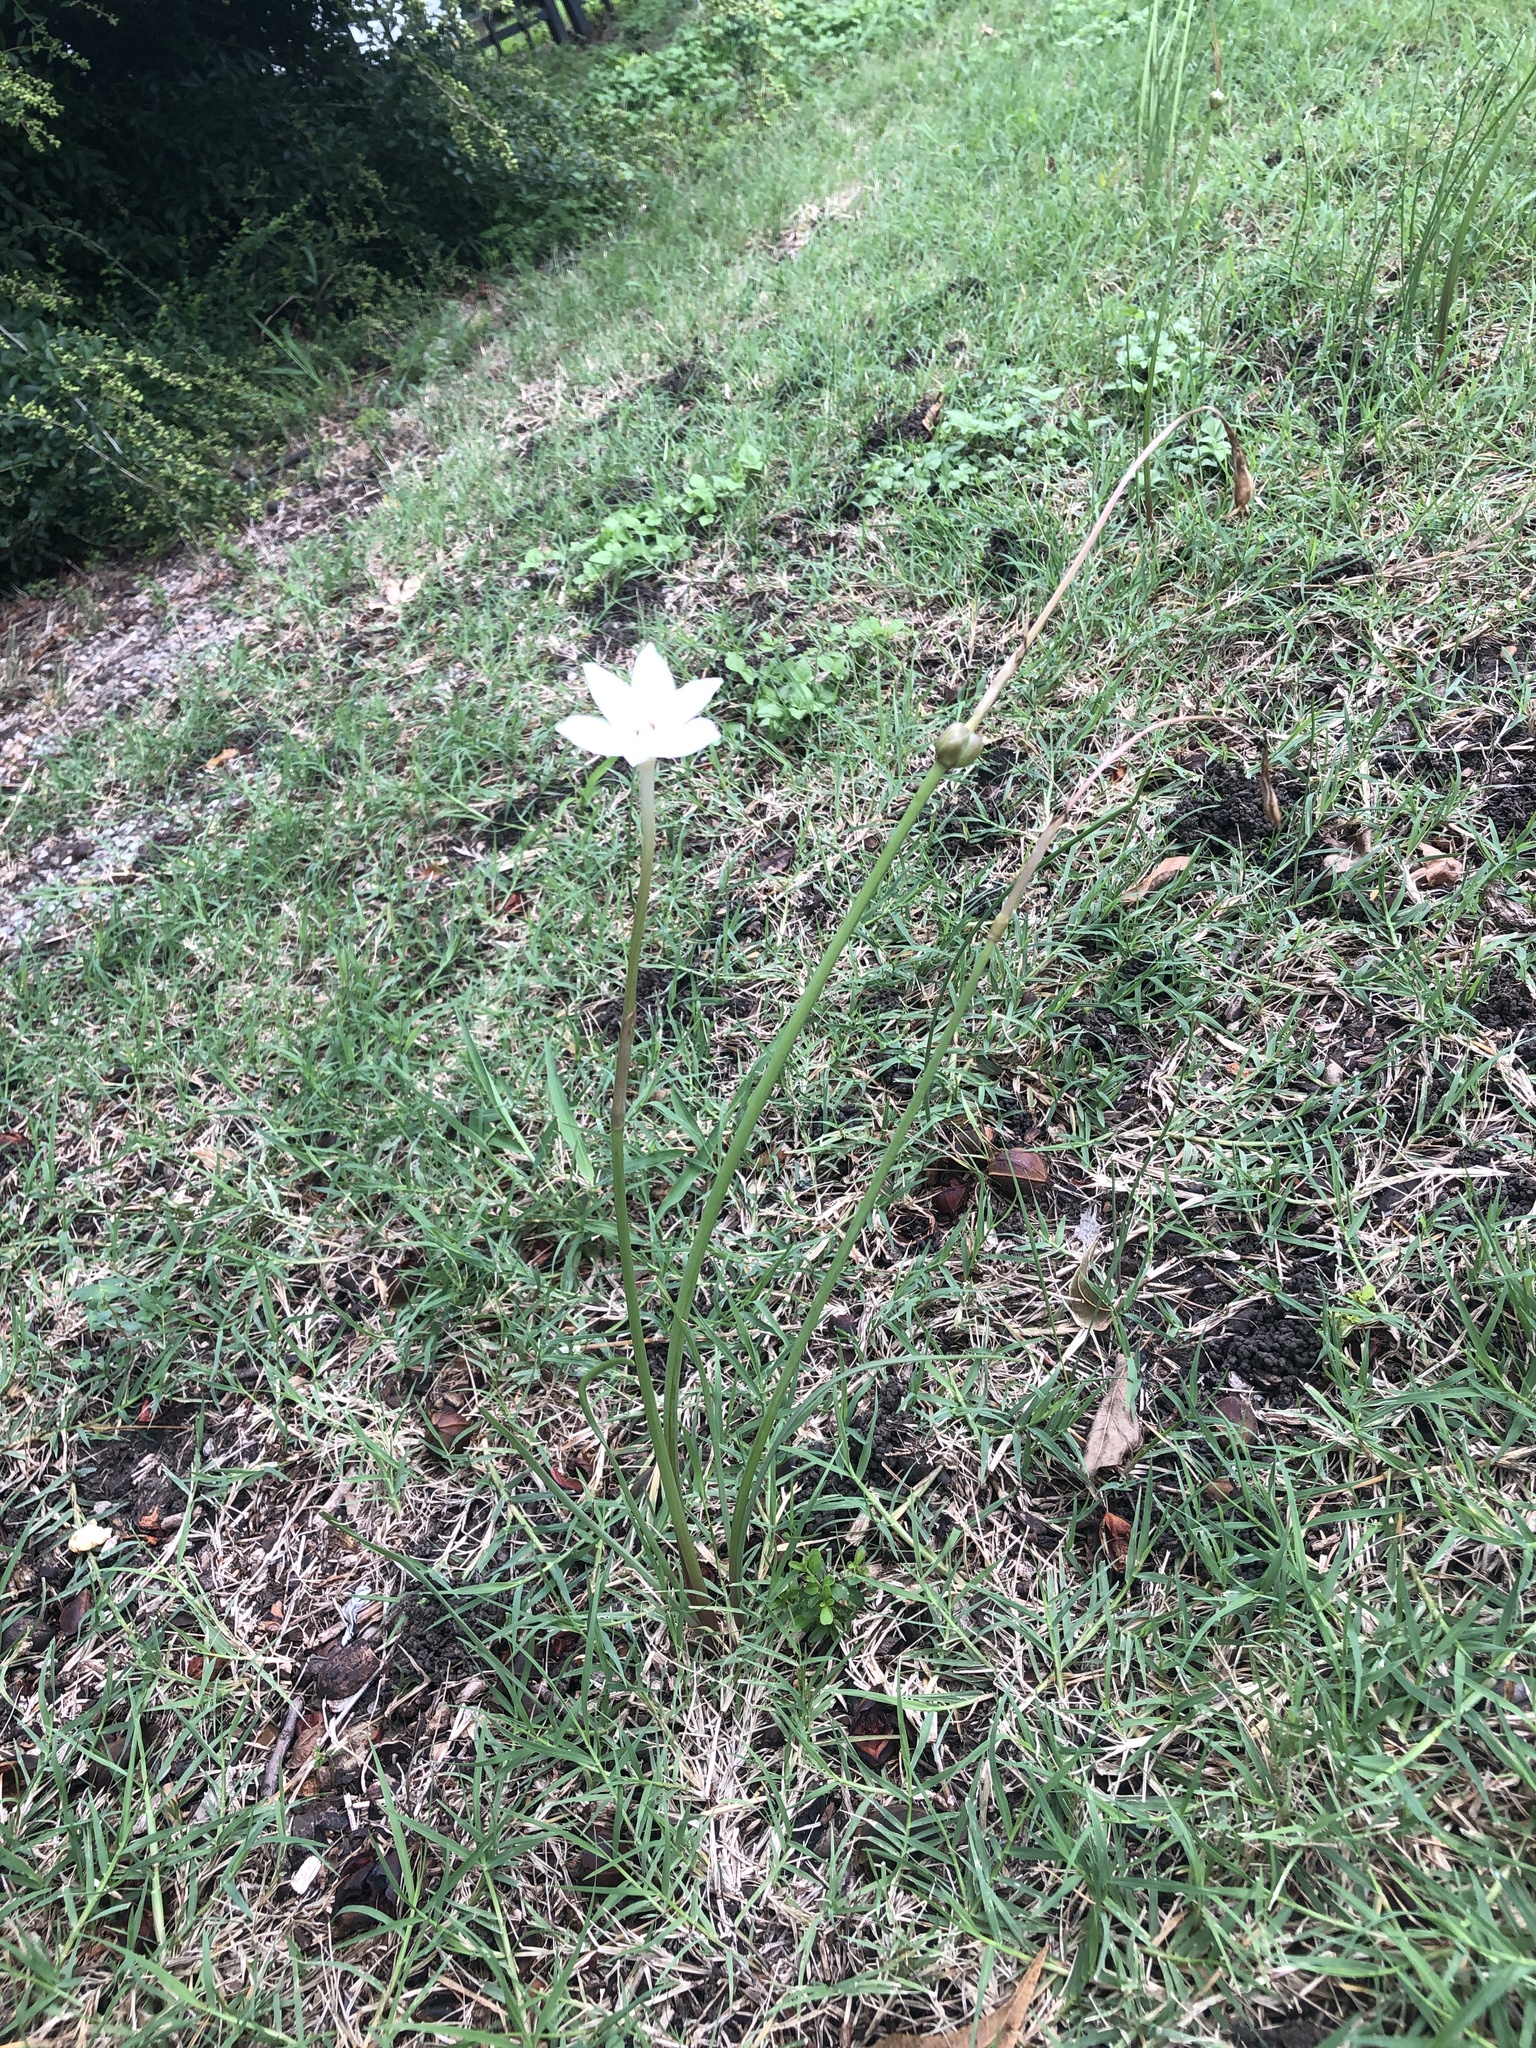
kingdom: Plantae
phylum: Tracheophyta
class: Liliopsida
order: Asparagales
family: Amaryllidaceae
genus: Zephyranthes
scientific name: Zephyranthes chlorosolen
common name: Evening rain-lily
